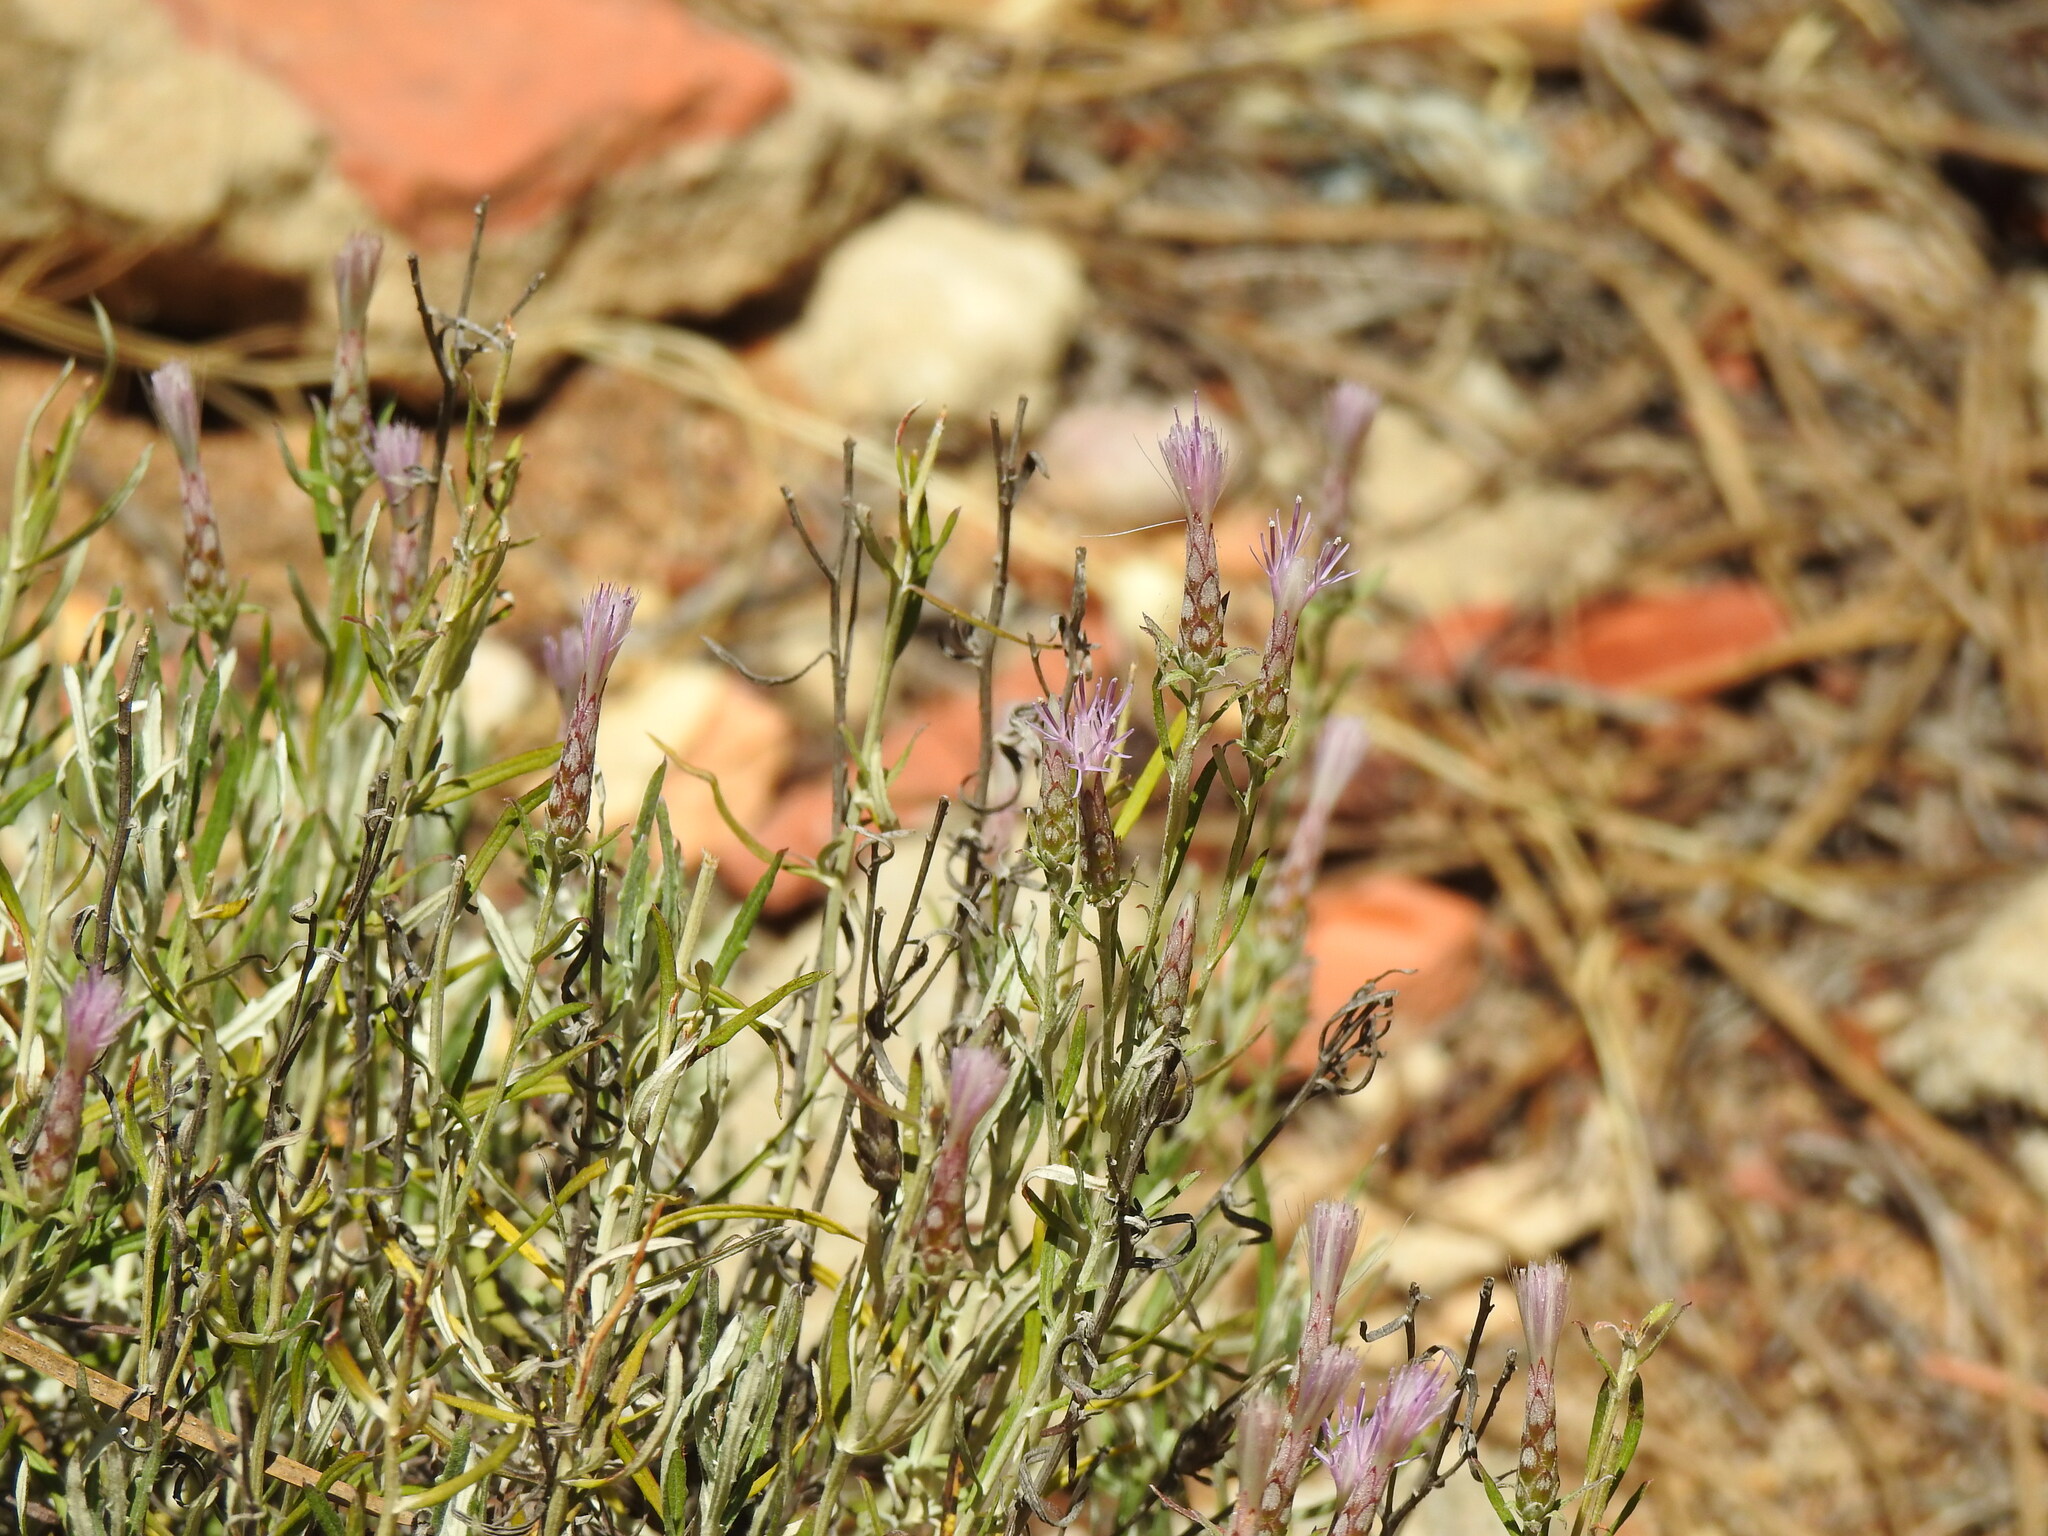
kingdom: Plantae
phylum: Tracheophyta
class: Magnoliopsida
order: Asterales
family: Asteraceae
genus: Staehelina
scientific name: Staehelina dubia
